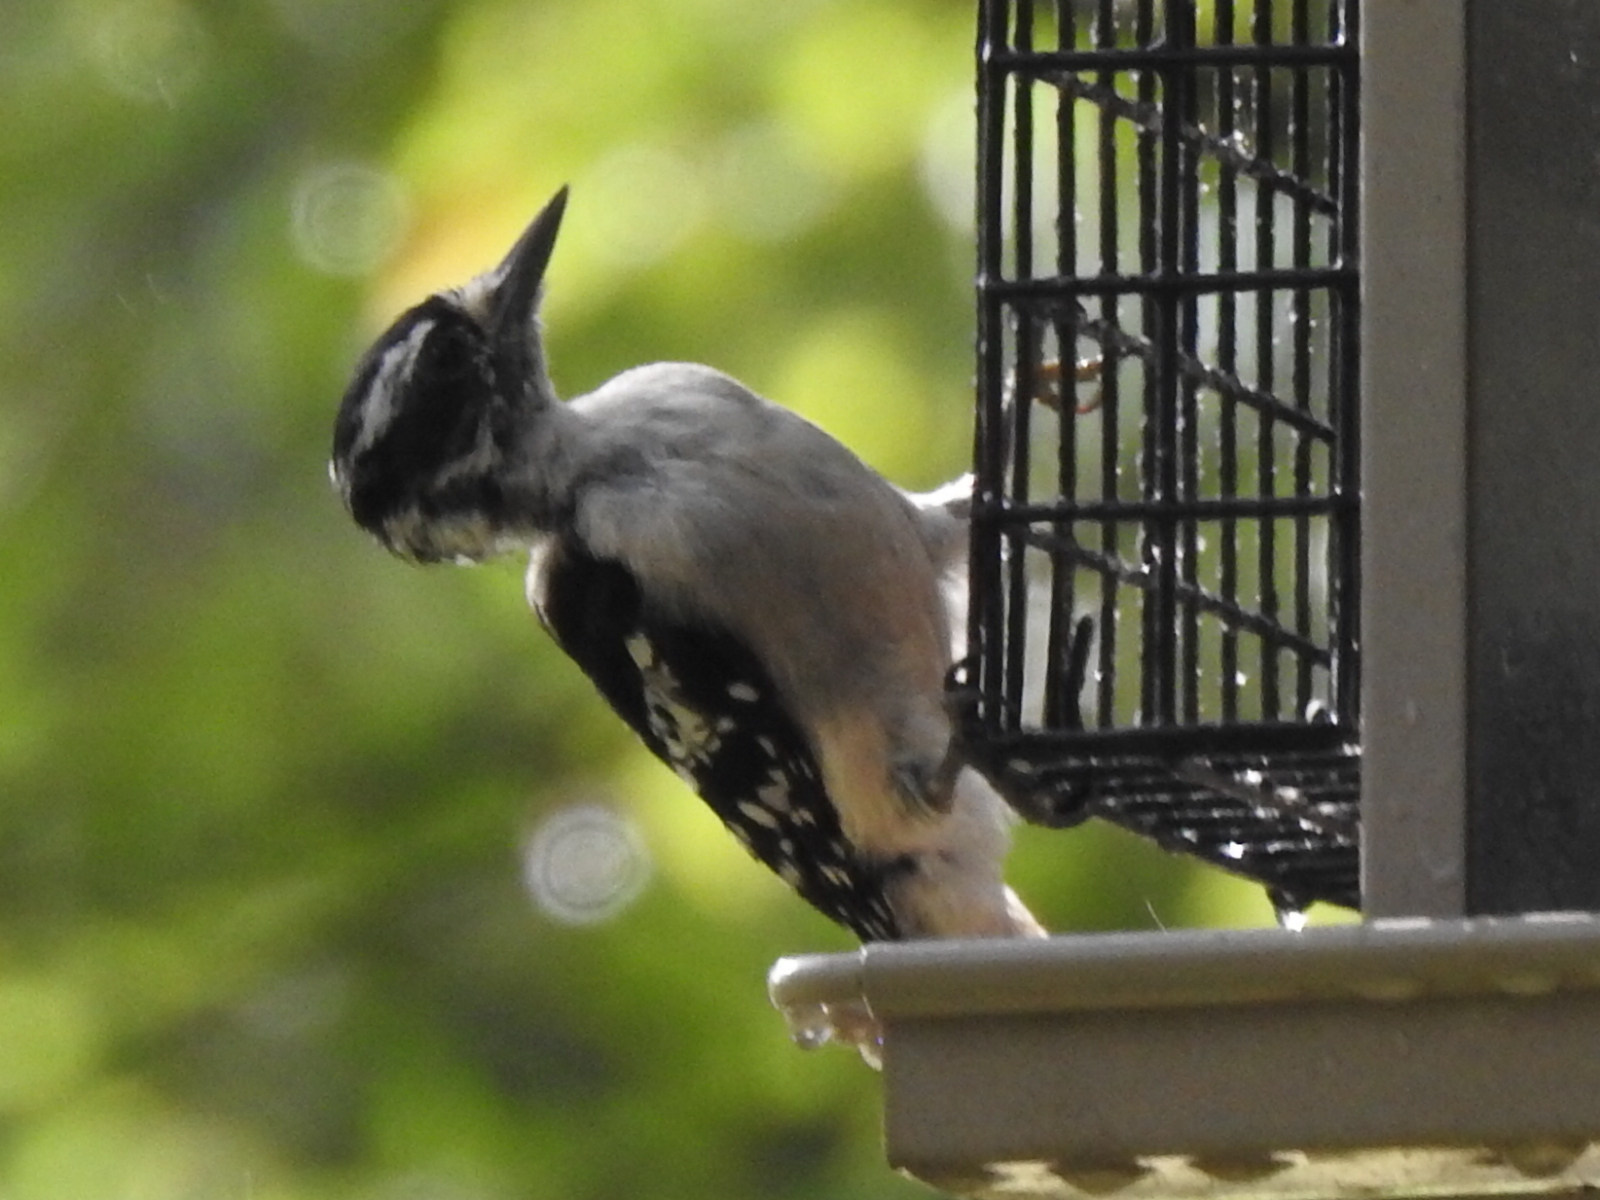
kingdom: Animalia
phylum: Chordata
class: Aves
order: Piciformes
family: Picidae
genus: Dryobates
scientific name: Dryobates pubescens
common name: Downy woodpecker
